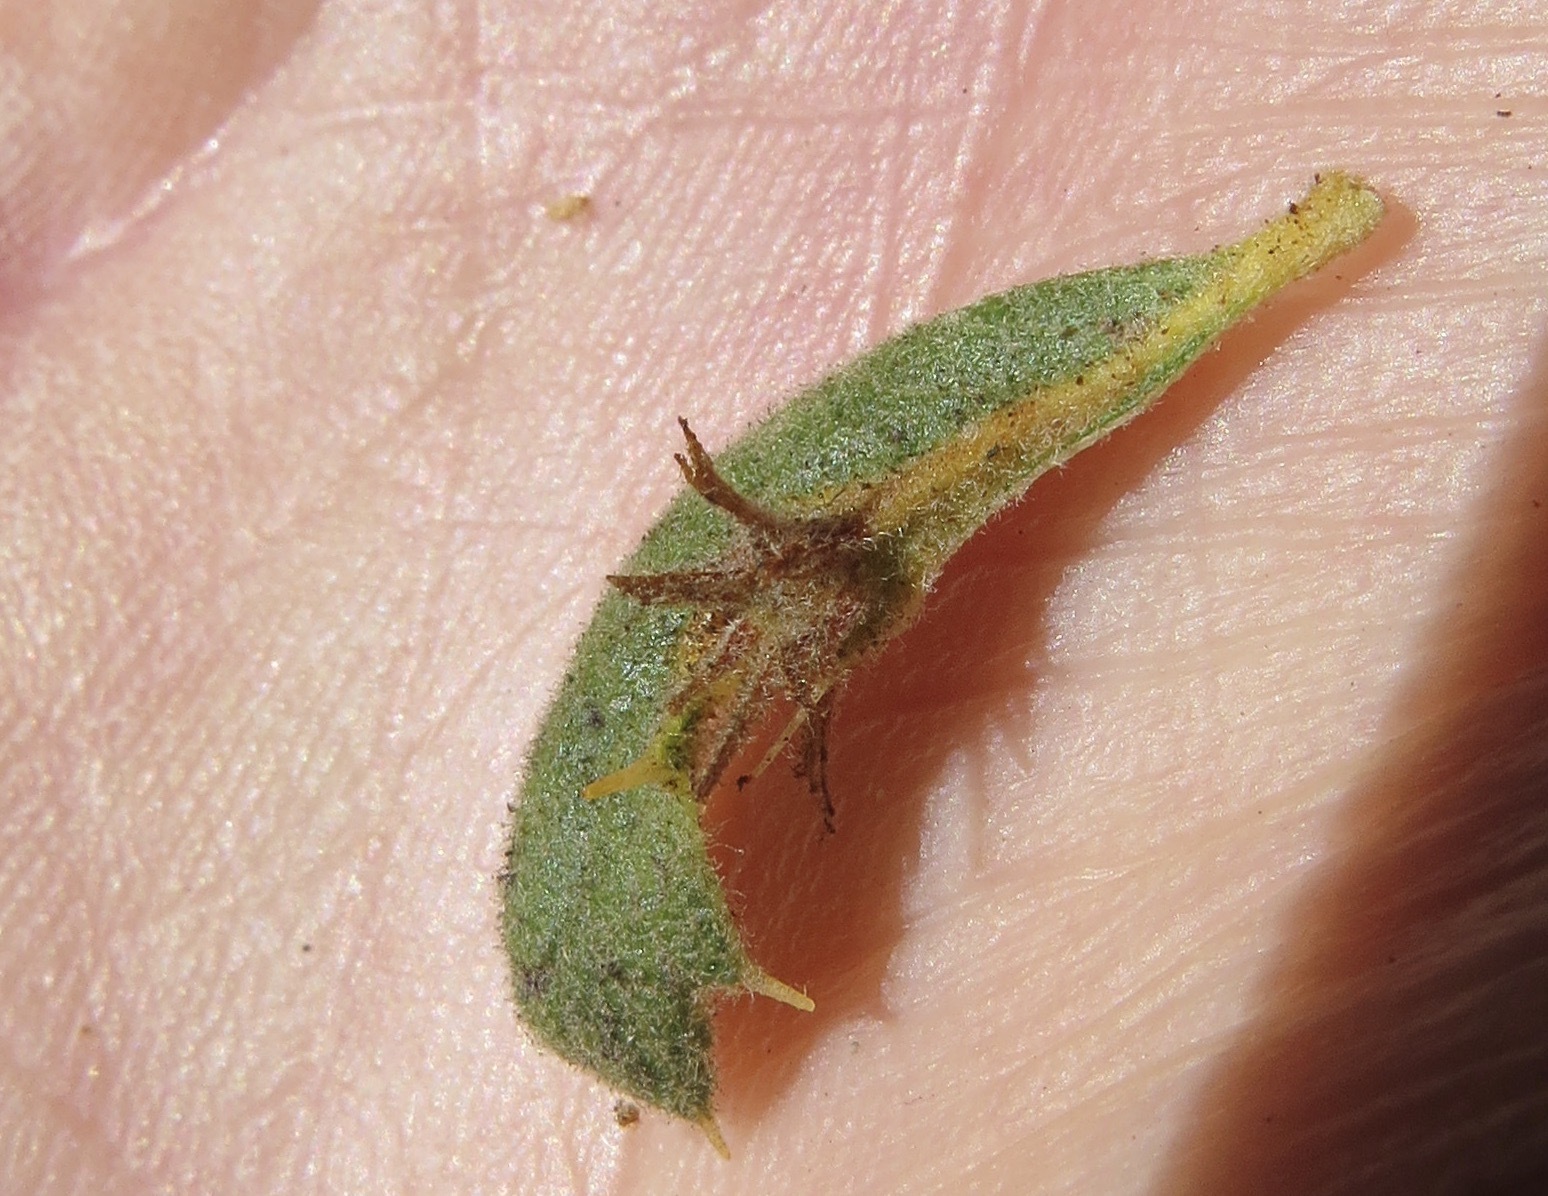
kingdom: Animalia
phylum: Arthropoda
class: Insecta
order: Hymenoptera
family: Cynipidae
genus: Andricus
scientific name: Andricus
